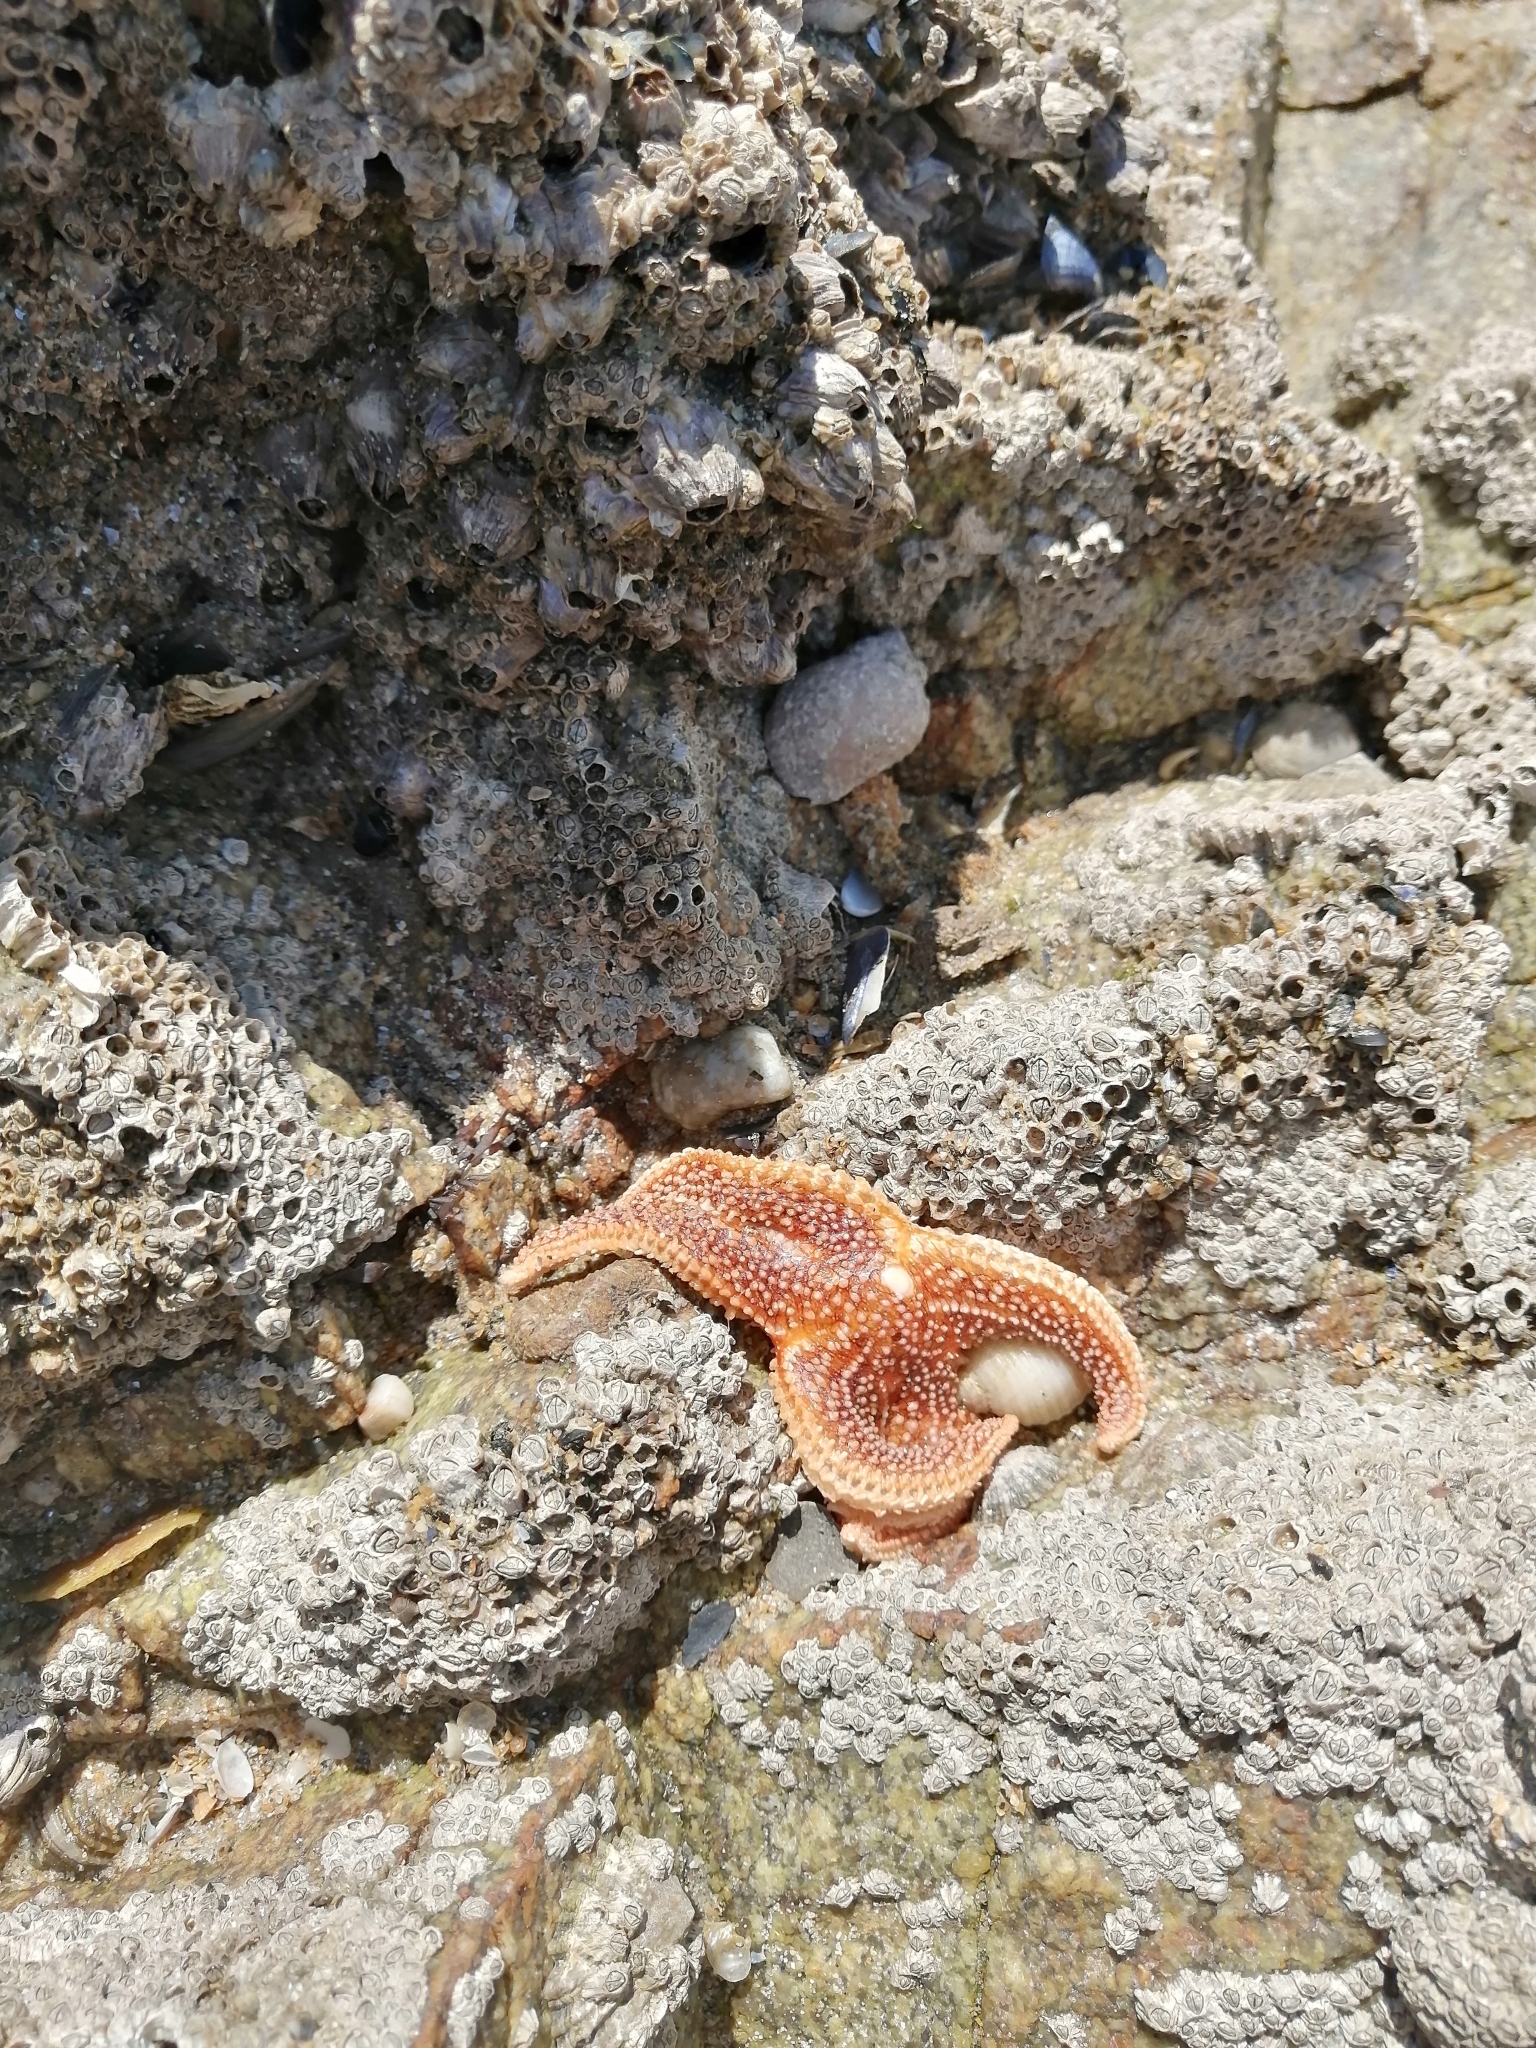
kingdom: Animalia
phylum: Echinodermata
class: Asteroidea
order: Forcipulatida
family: Asteriidae
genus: Asterias
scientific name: Asterias rubens
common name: Common starfish
